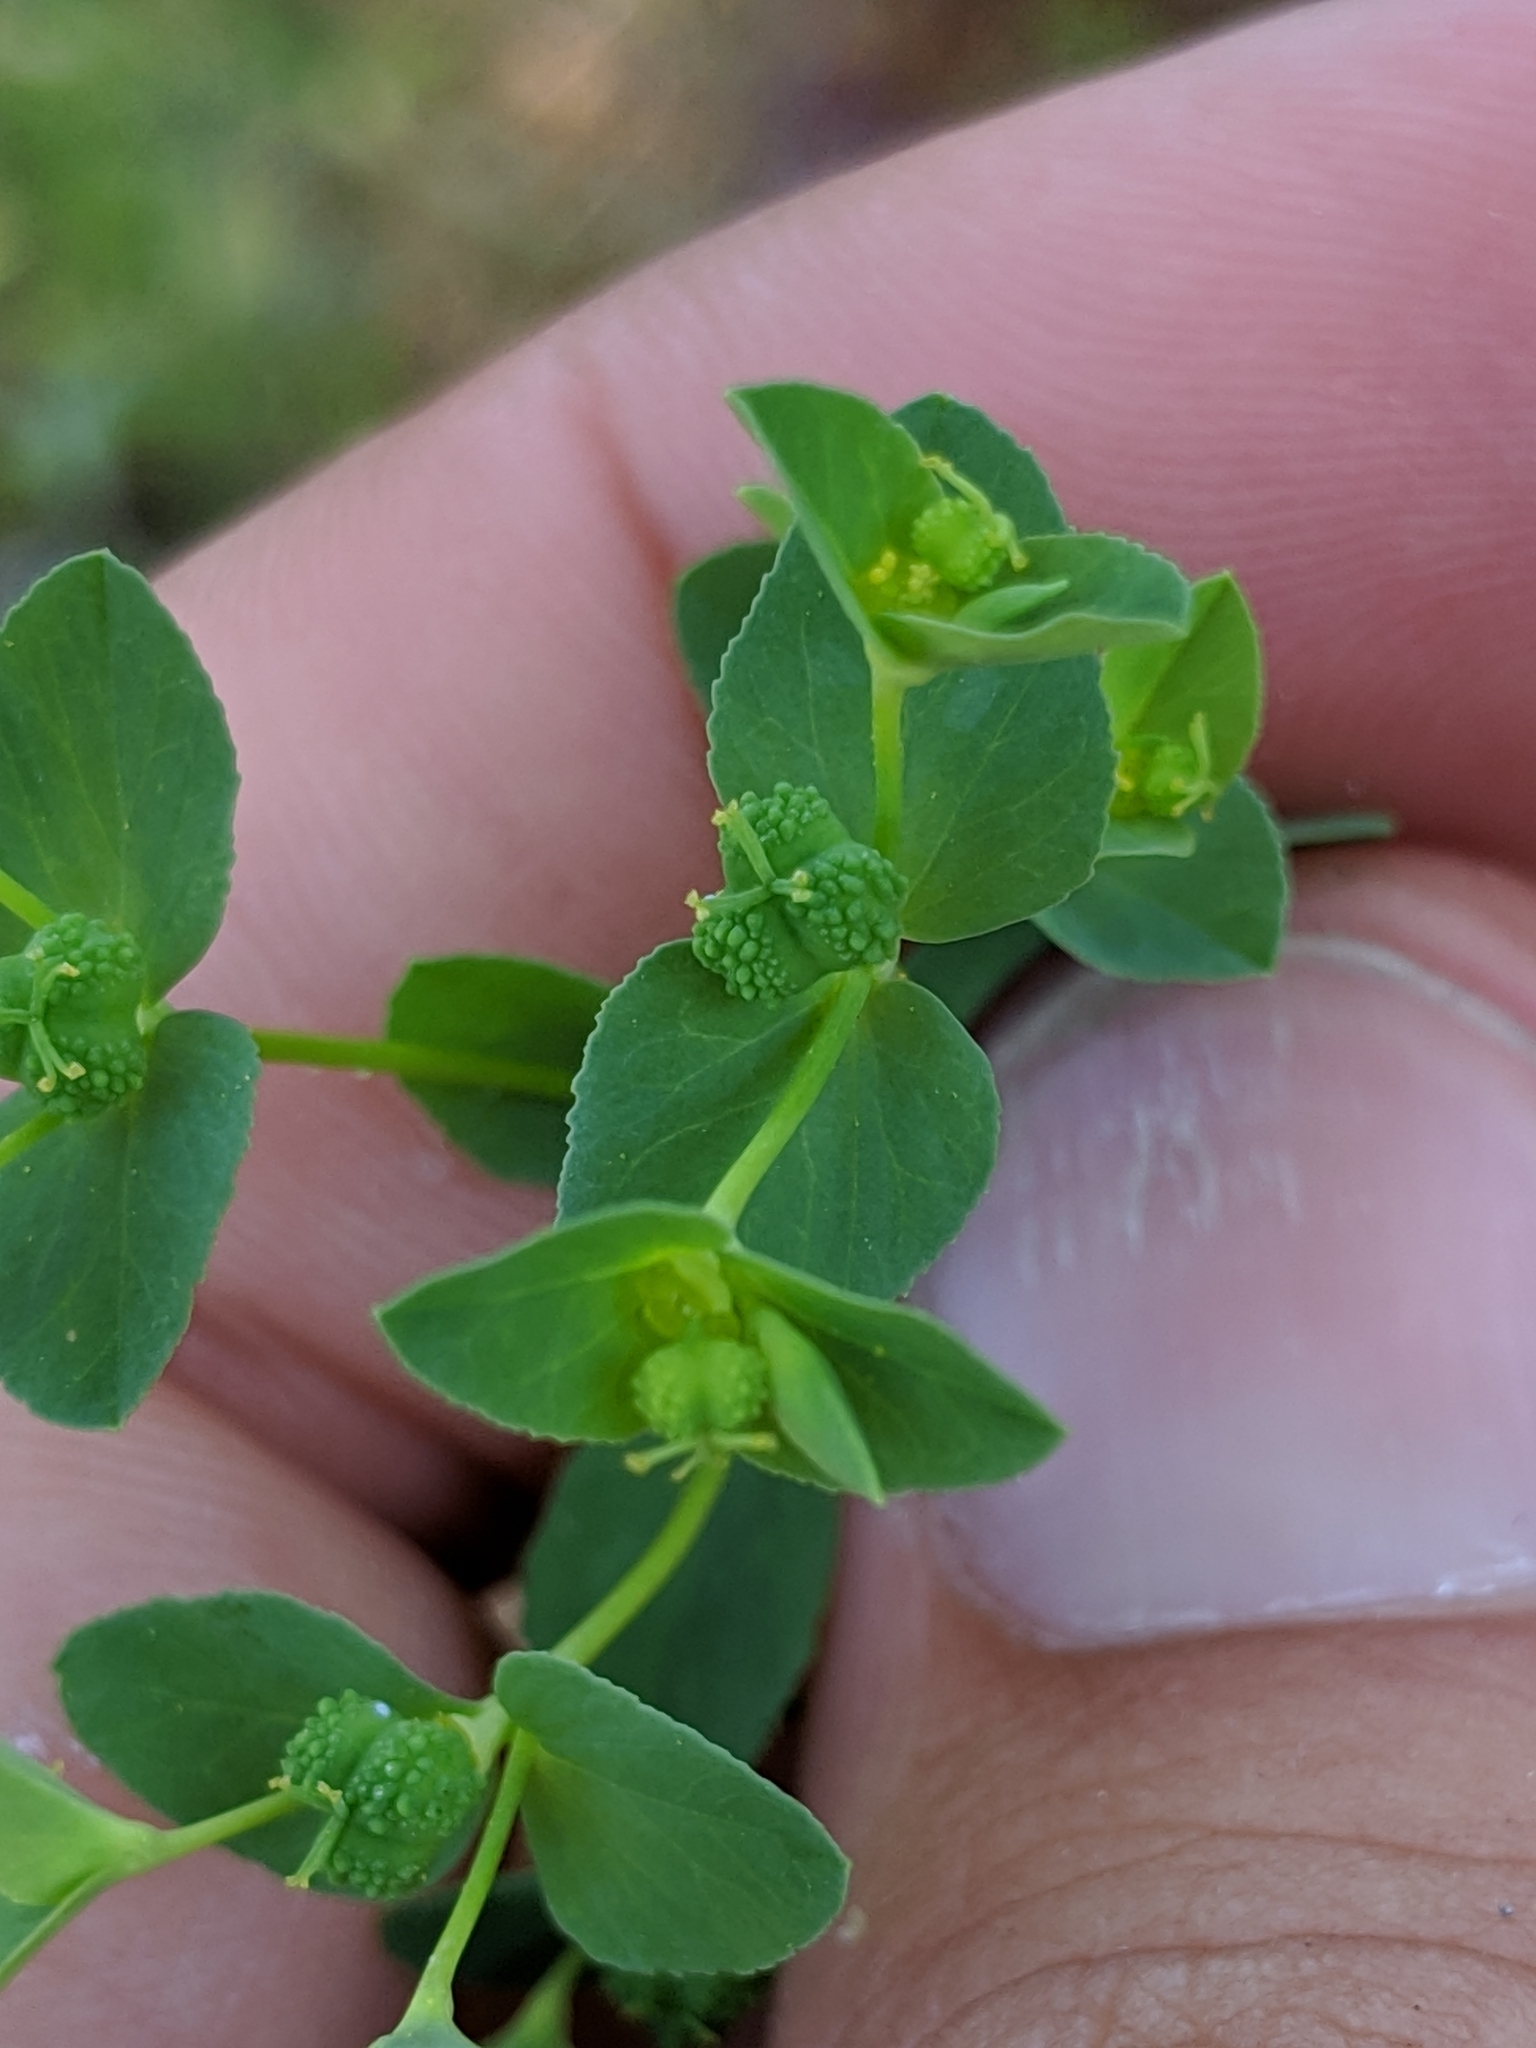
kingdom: Plantae
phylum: Tracheophyta
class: Magnoliopsida
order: Malpighiales
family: Euphorbiaceae
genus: Euphorbia
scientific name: Euphorbia spathulata
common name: Blunt spurge
